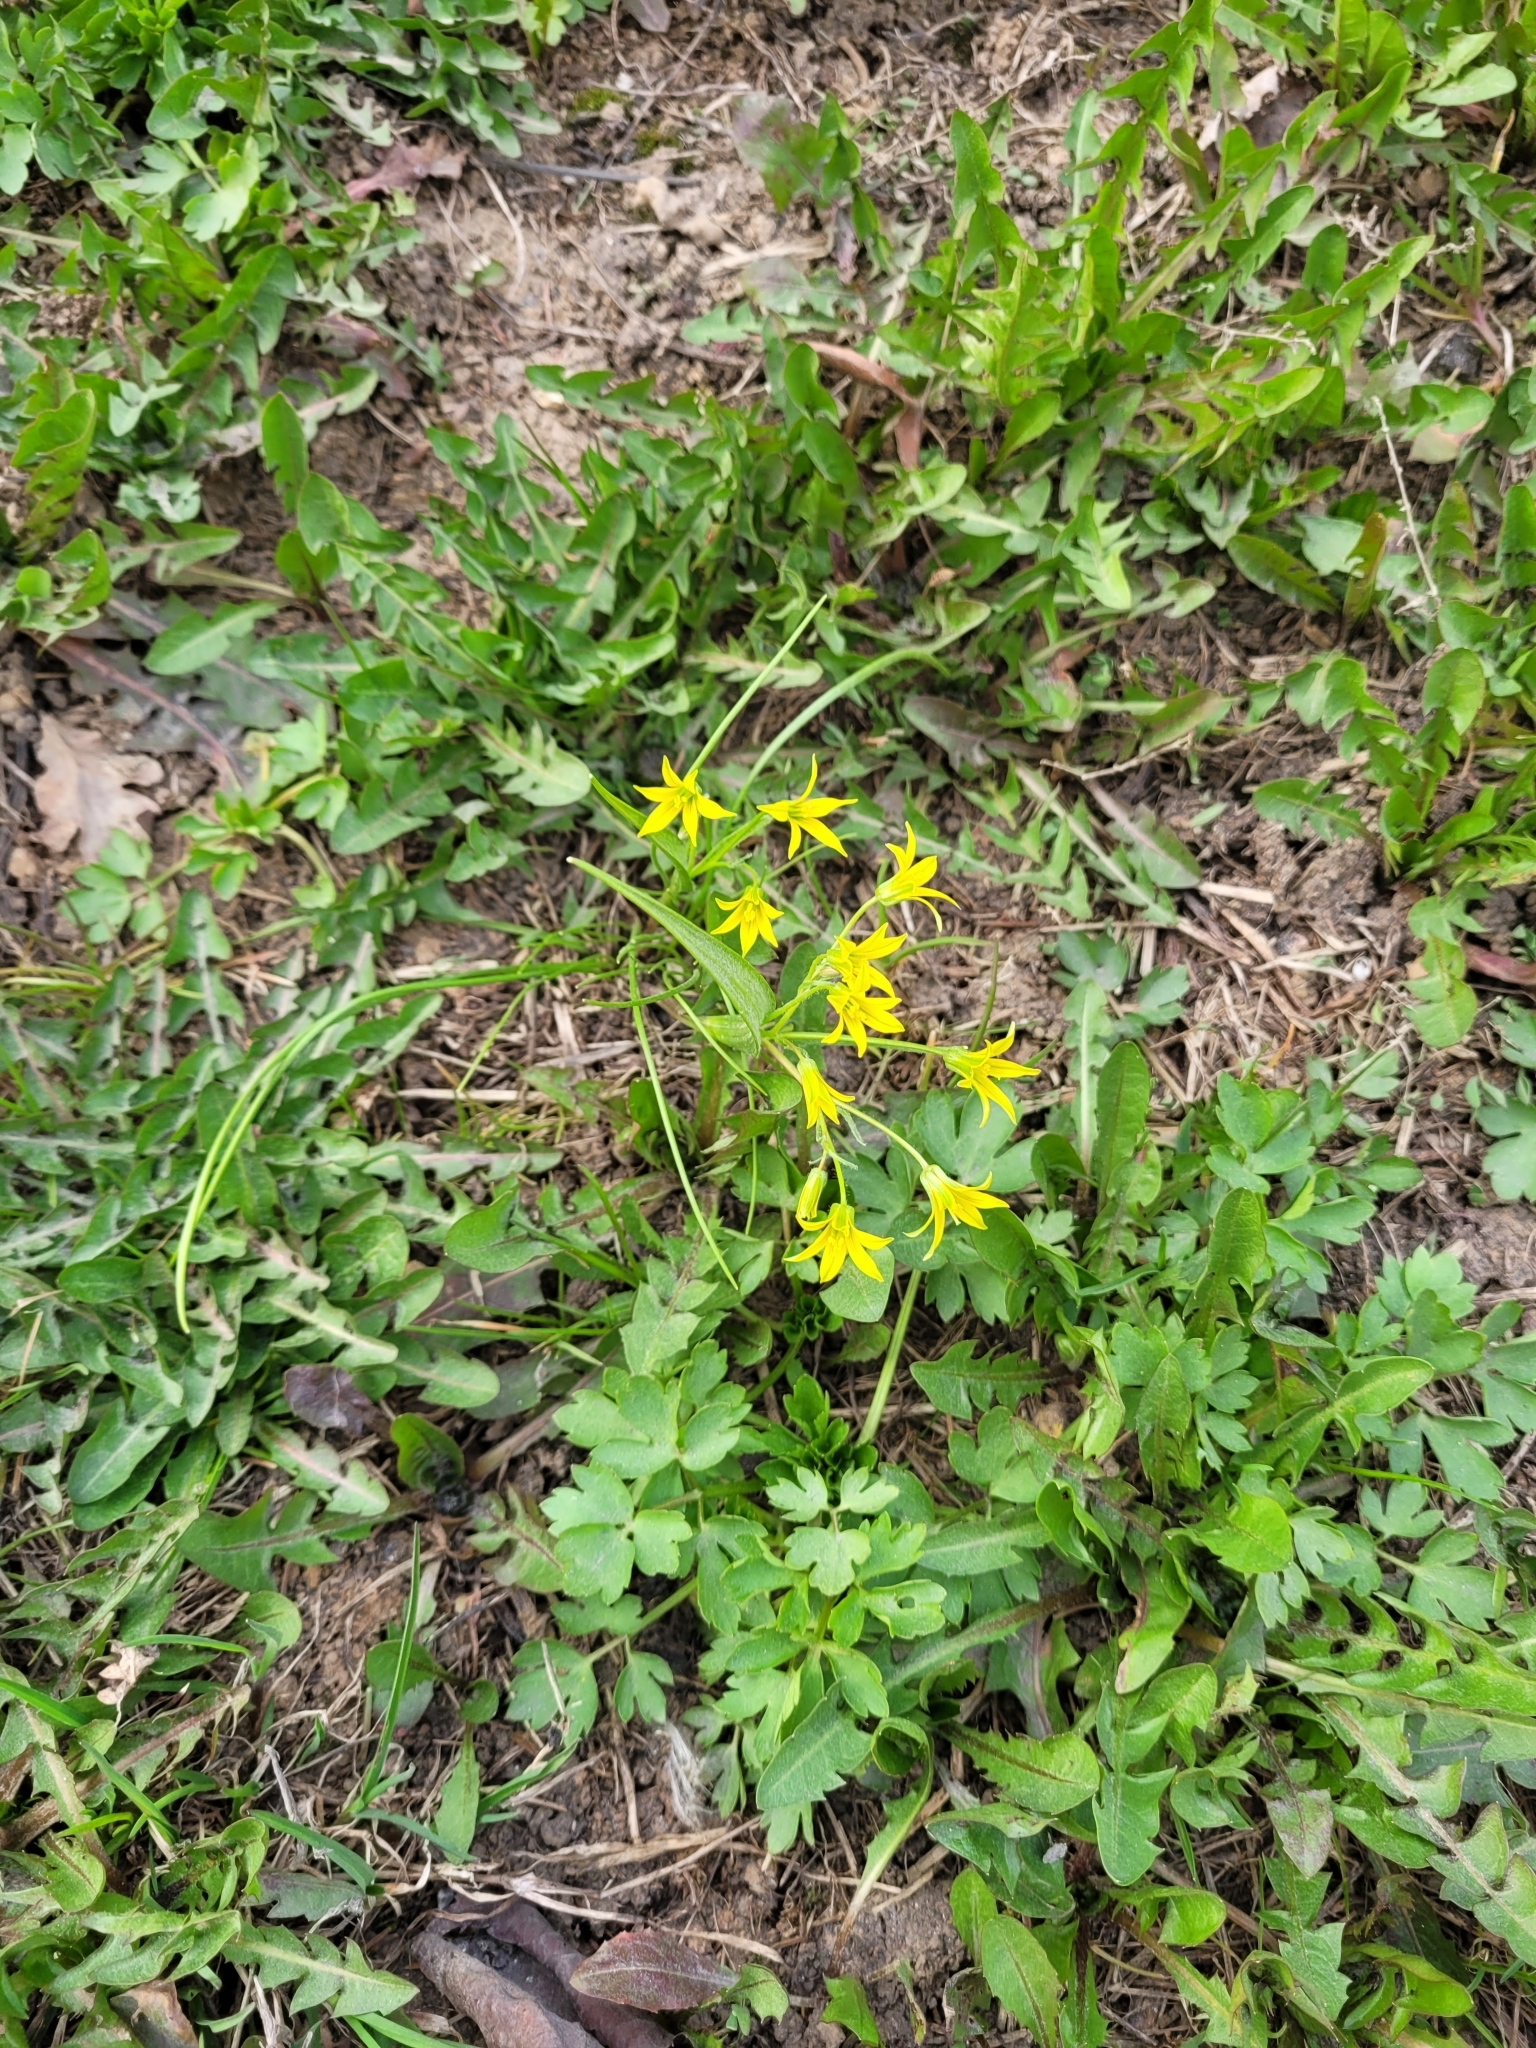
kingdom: Plantae
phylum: Tracheophyta
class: Liliopsida
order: Liliales
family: Liliaceae
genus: Gagea
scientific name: Gagea minima
